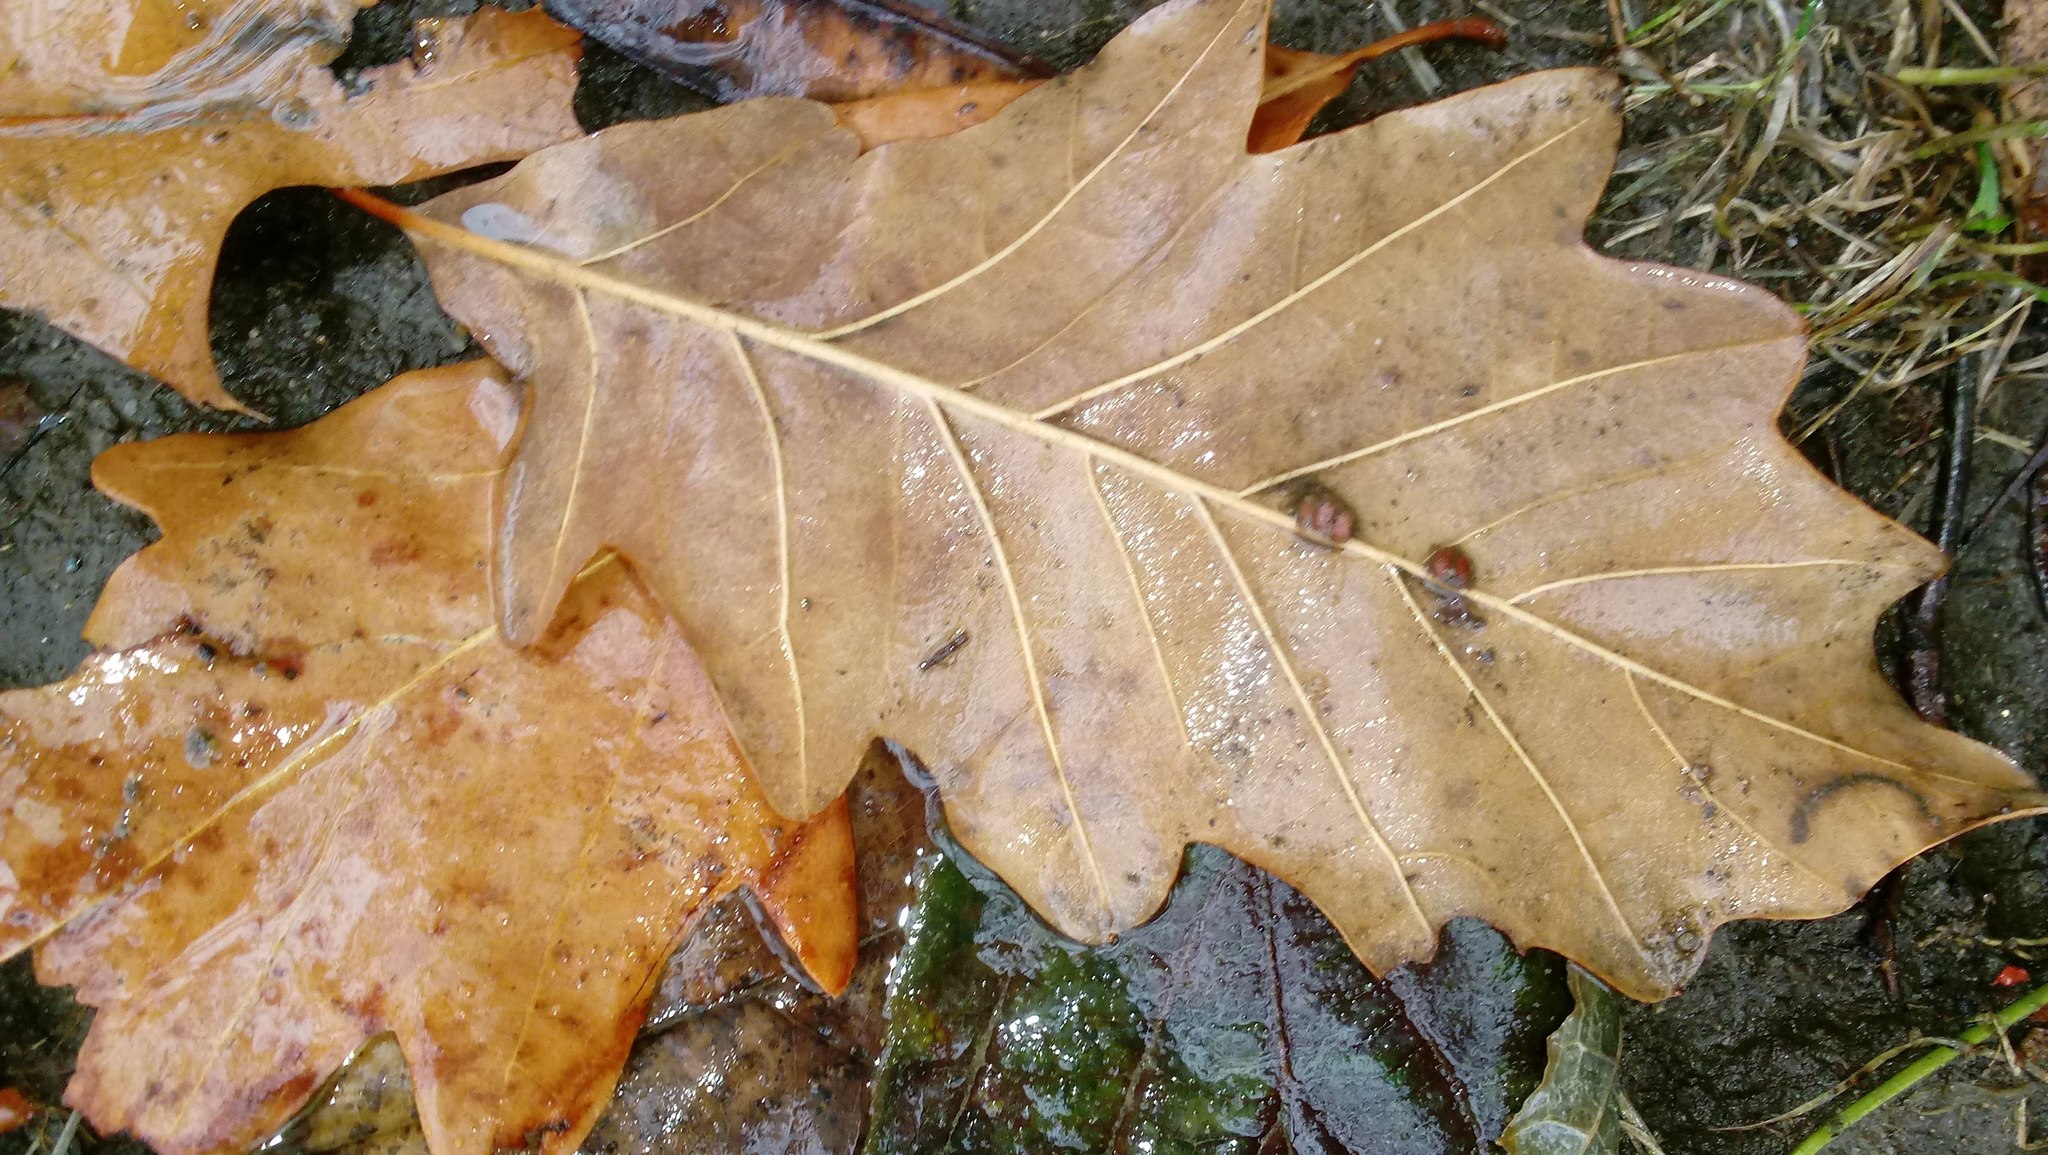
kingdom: Animalia
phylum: Arthropoda
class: Insecta
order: Hymenoptera
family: Cynipidae
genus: Andricus
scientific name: Andricus Druon ignotum
